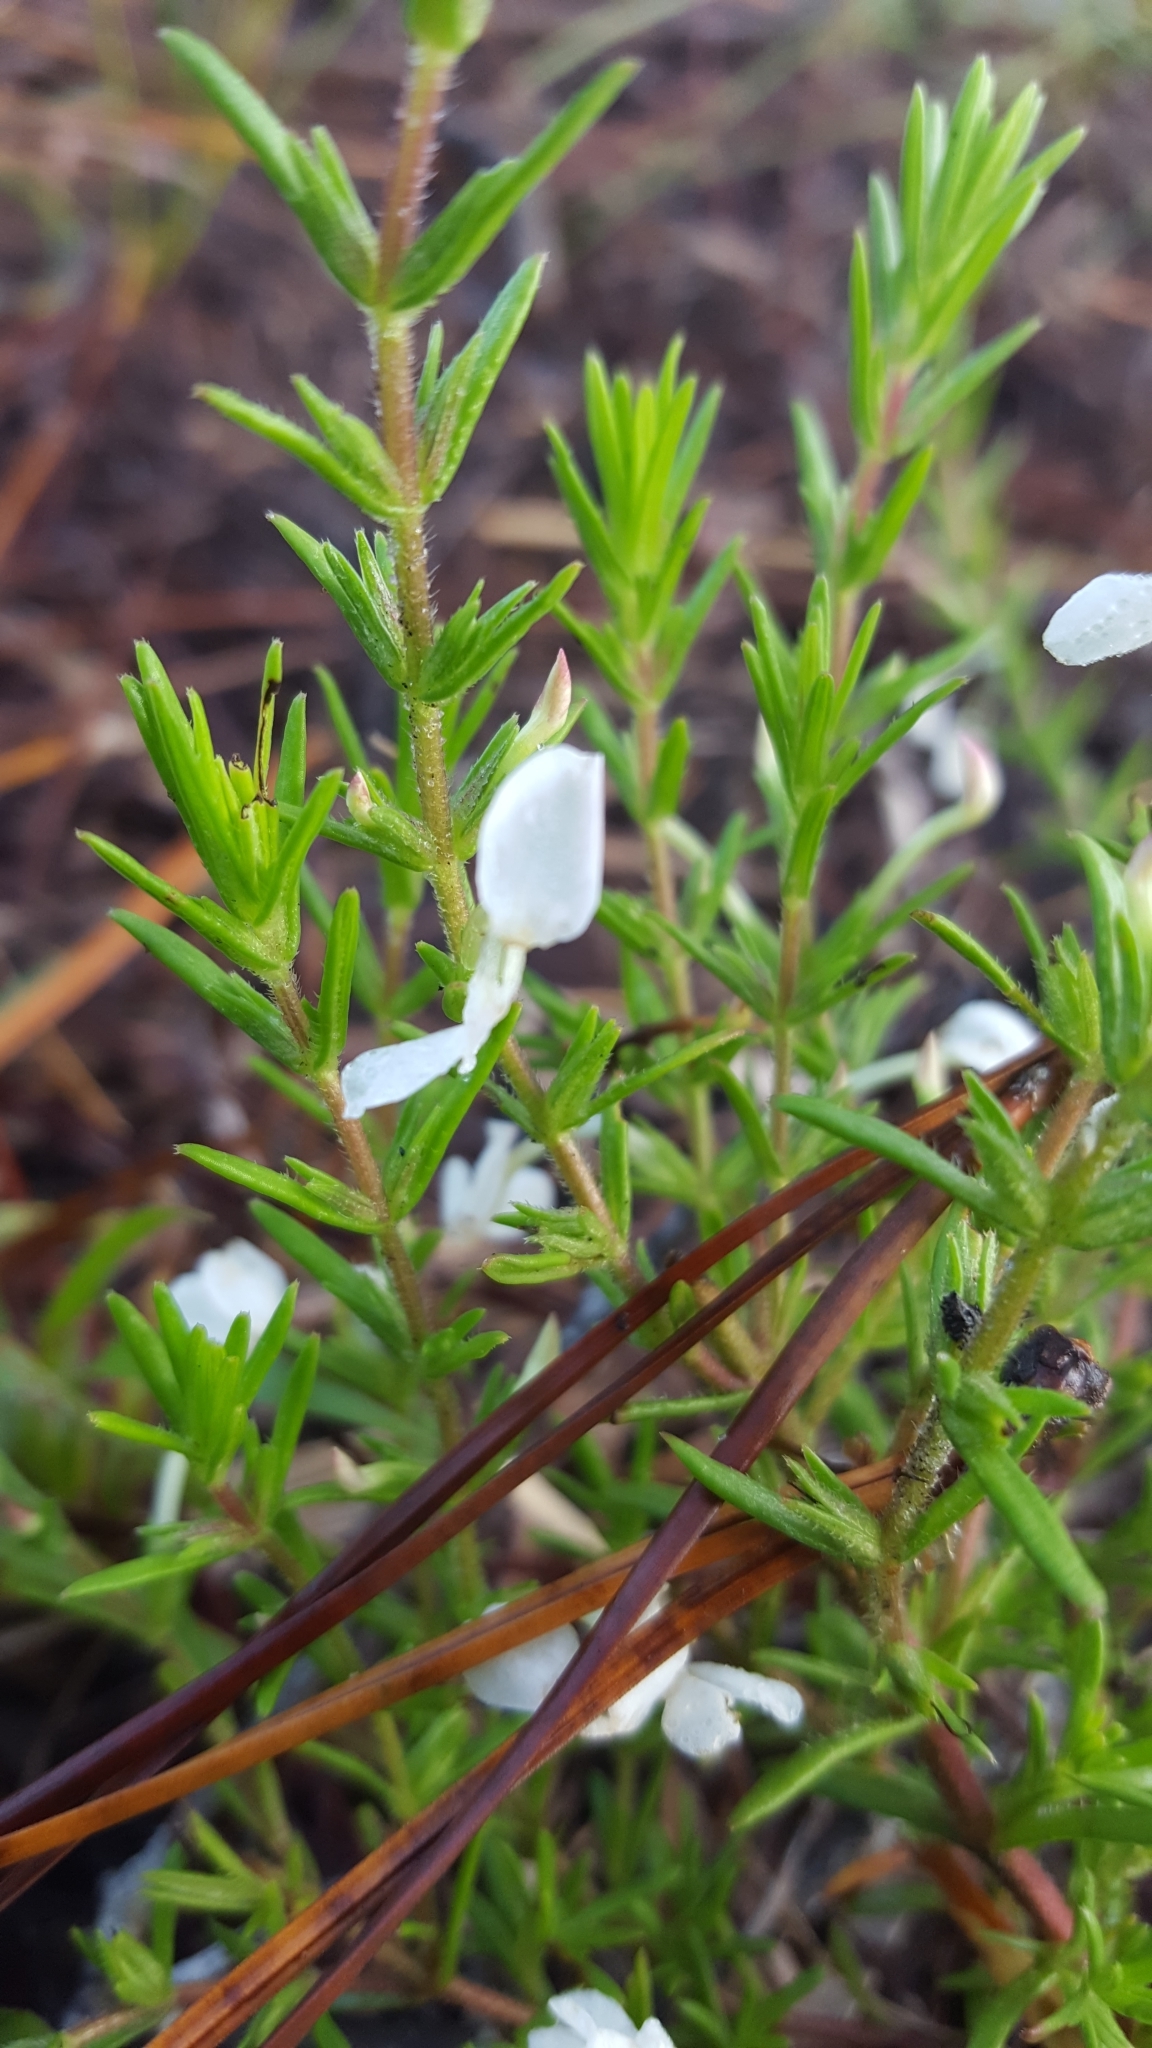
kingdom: Plantae
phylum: Tracheophyta
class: Magnoliopsida
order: Lamiales
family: Plantaginaceae
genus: Gratiola
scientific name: Gratiola hispida
